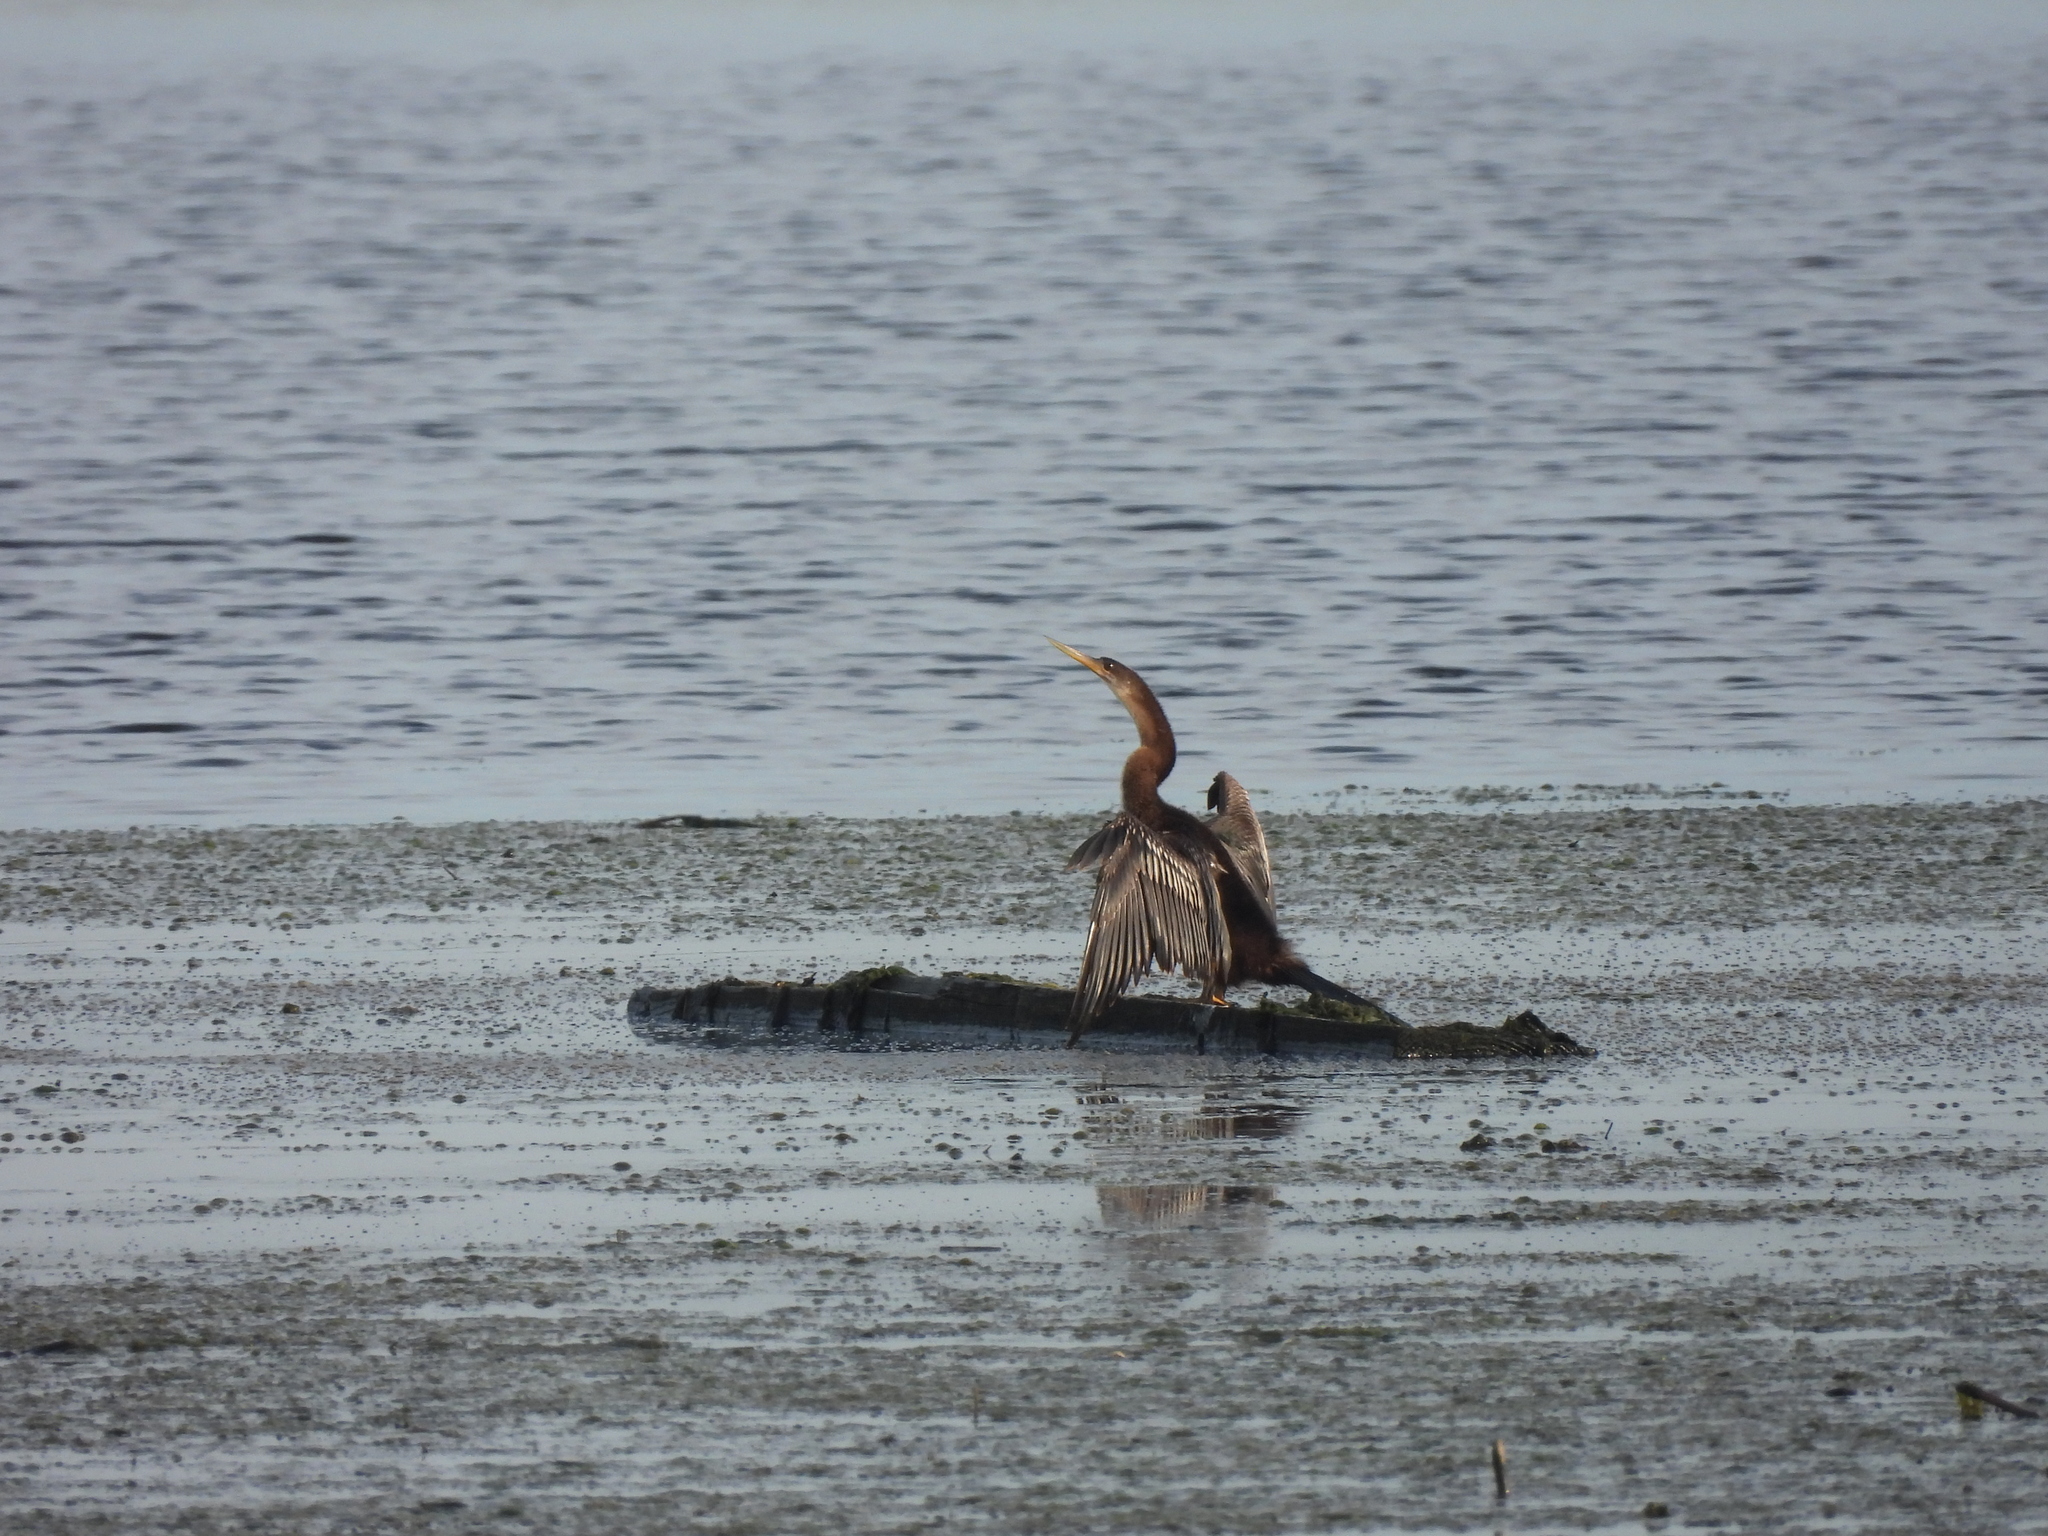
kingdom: Animalia
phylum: Chordata
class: Aves
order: Suliformes
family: Anhingidae
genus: Anhinga
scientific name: Anhinga anhinga
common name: Anhinga
